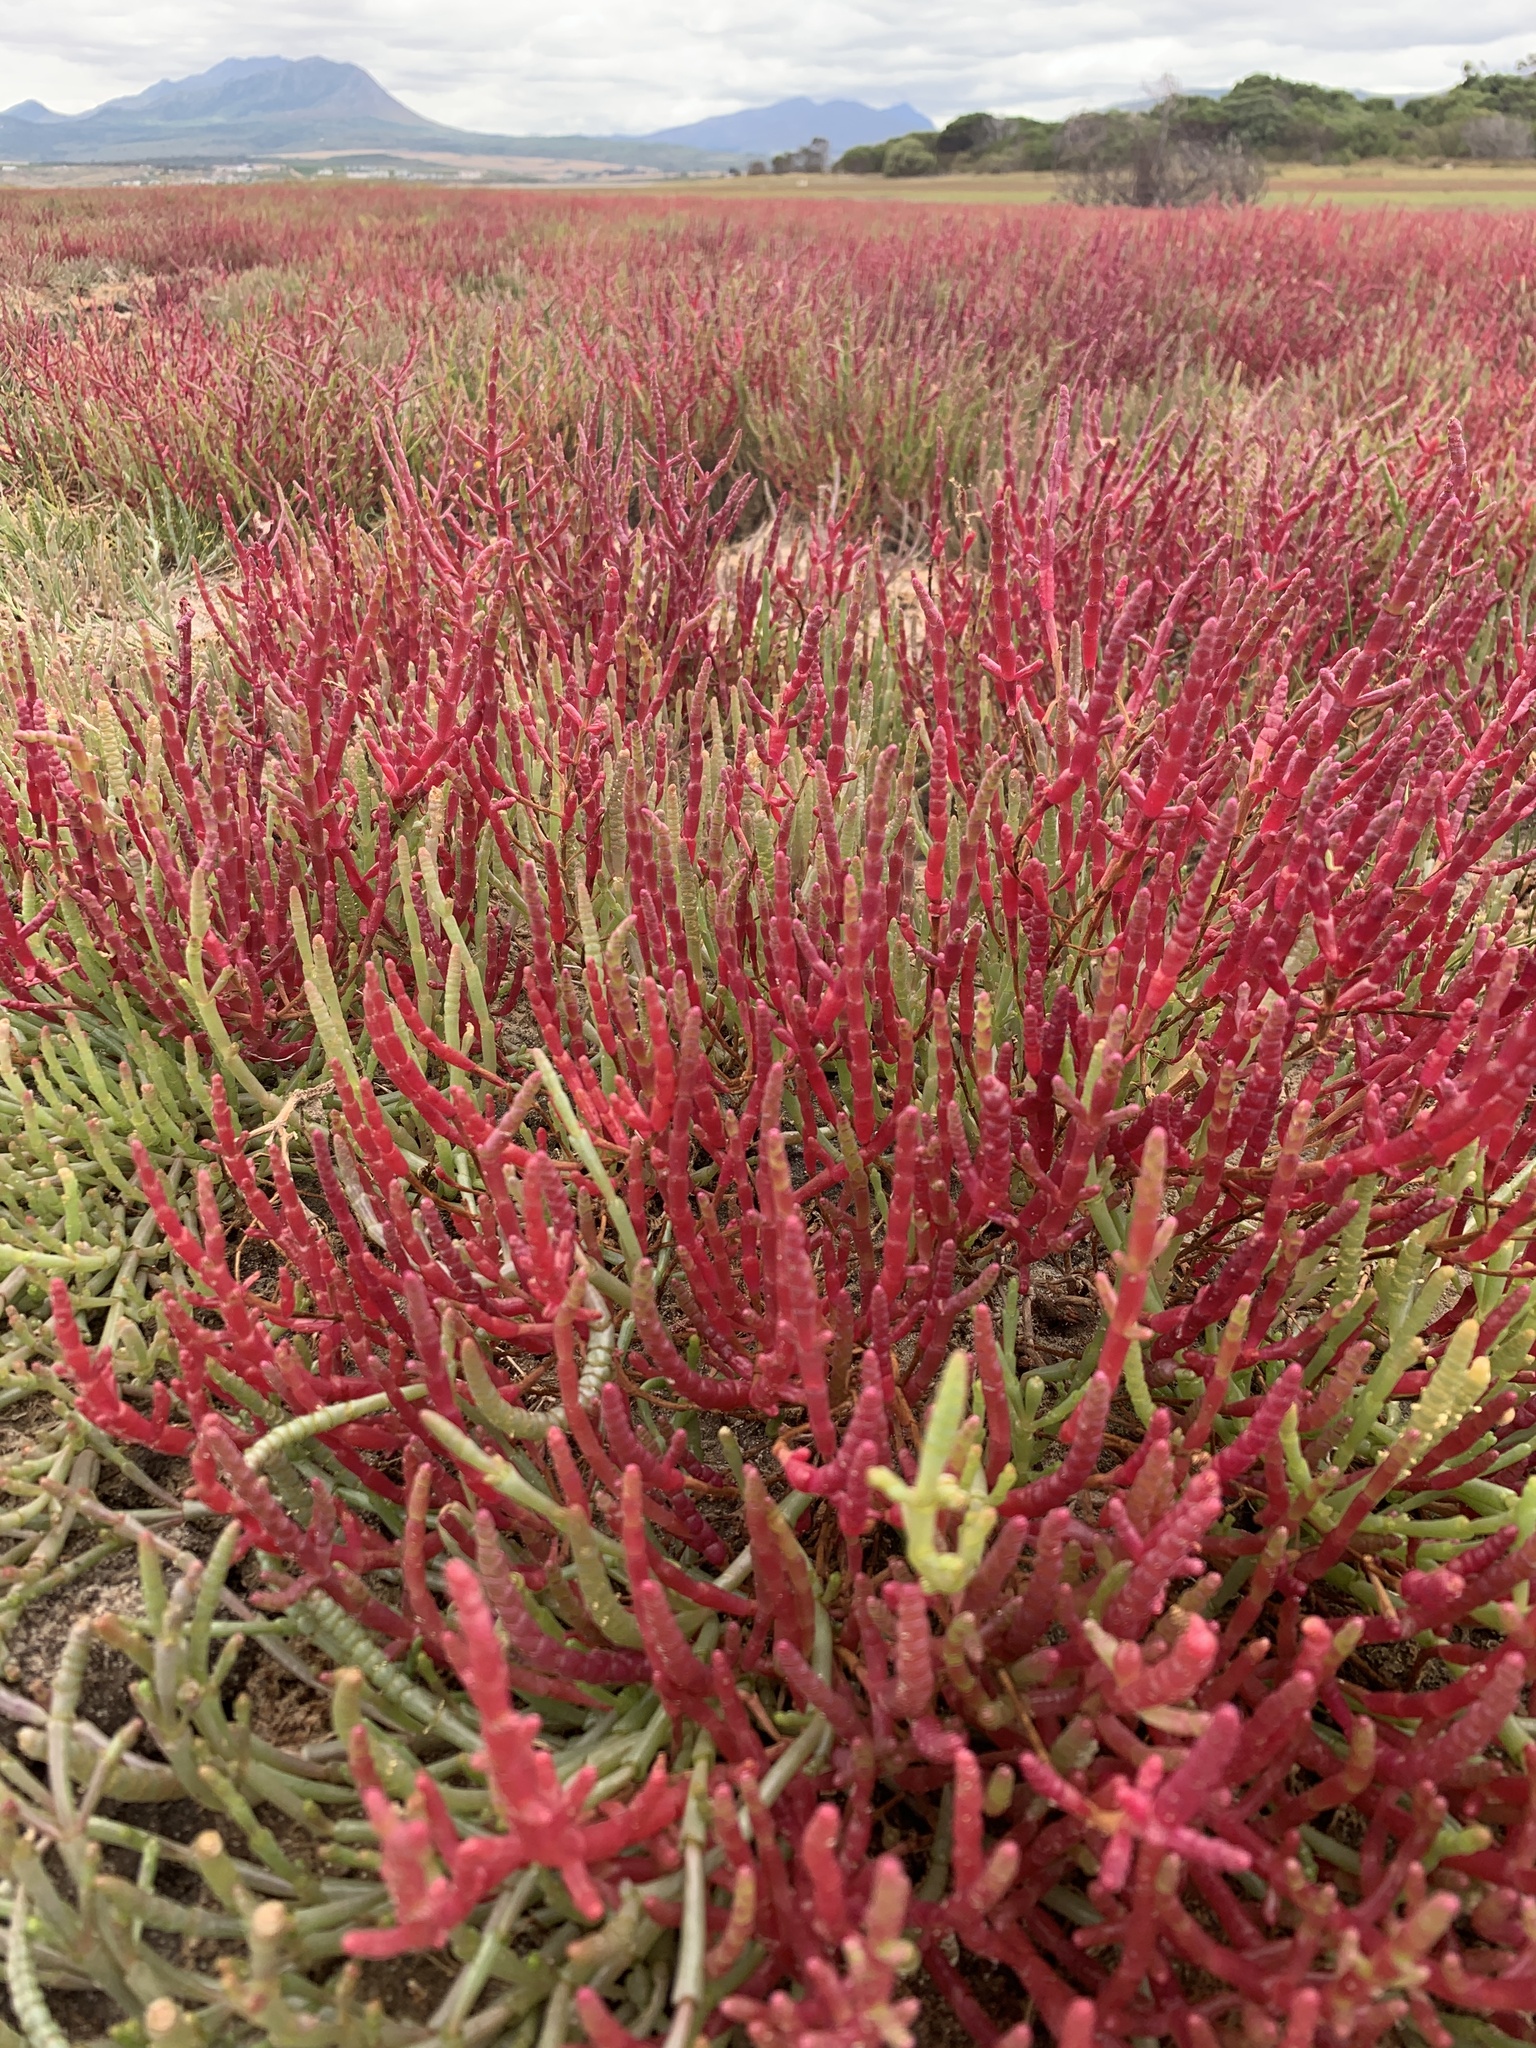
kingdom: Plantae
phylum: Tracheophyta
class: Magnoliopsida
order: Caryophyllales
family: Amaranthaceae
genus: Salicornia
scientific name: Salicornia meyeriana
